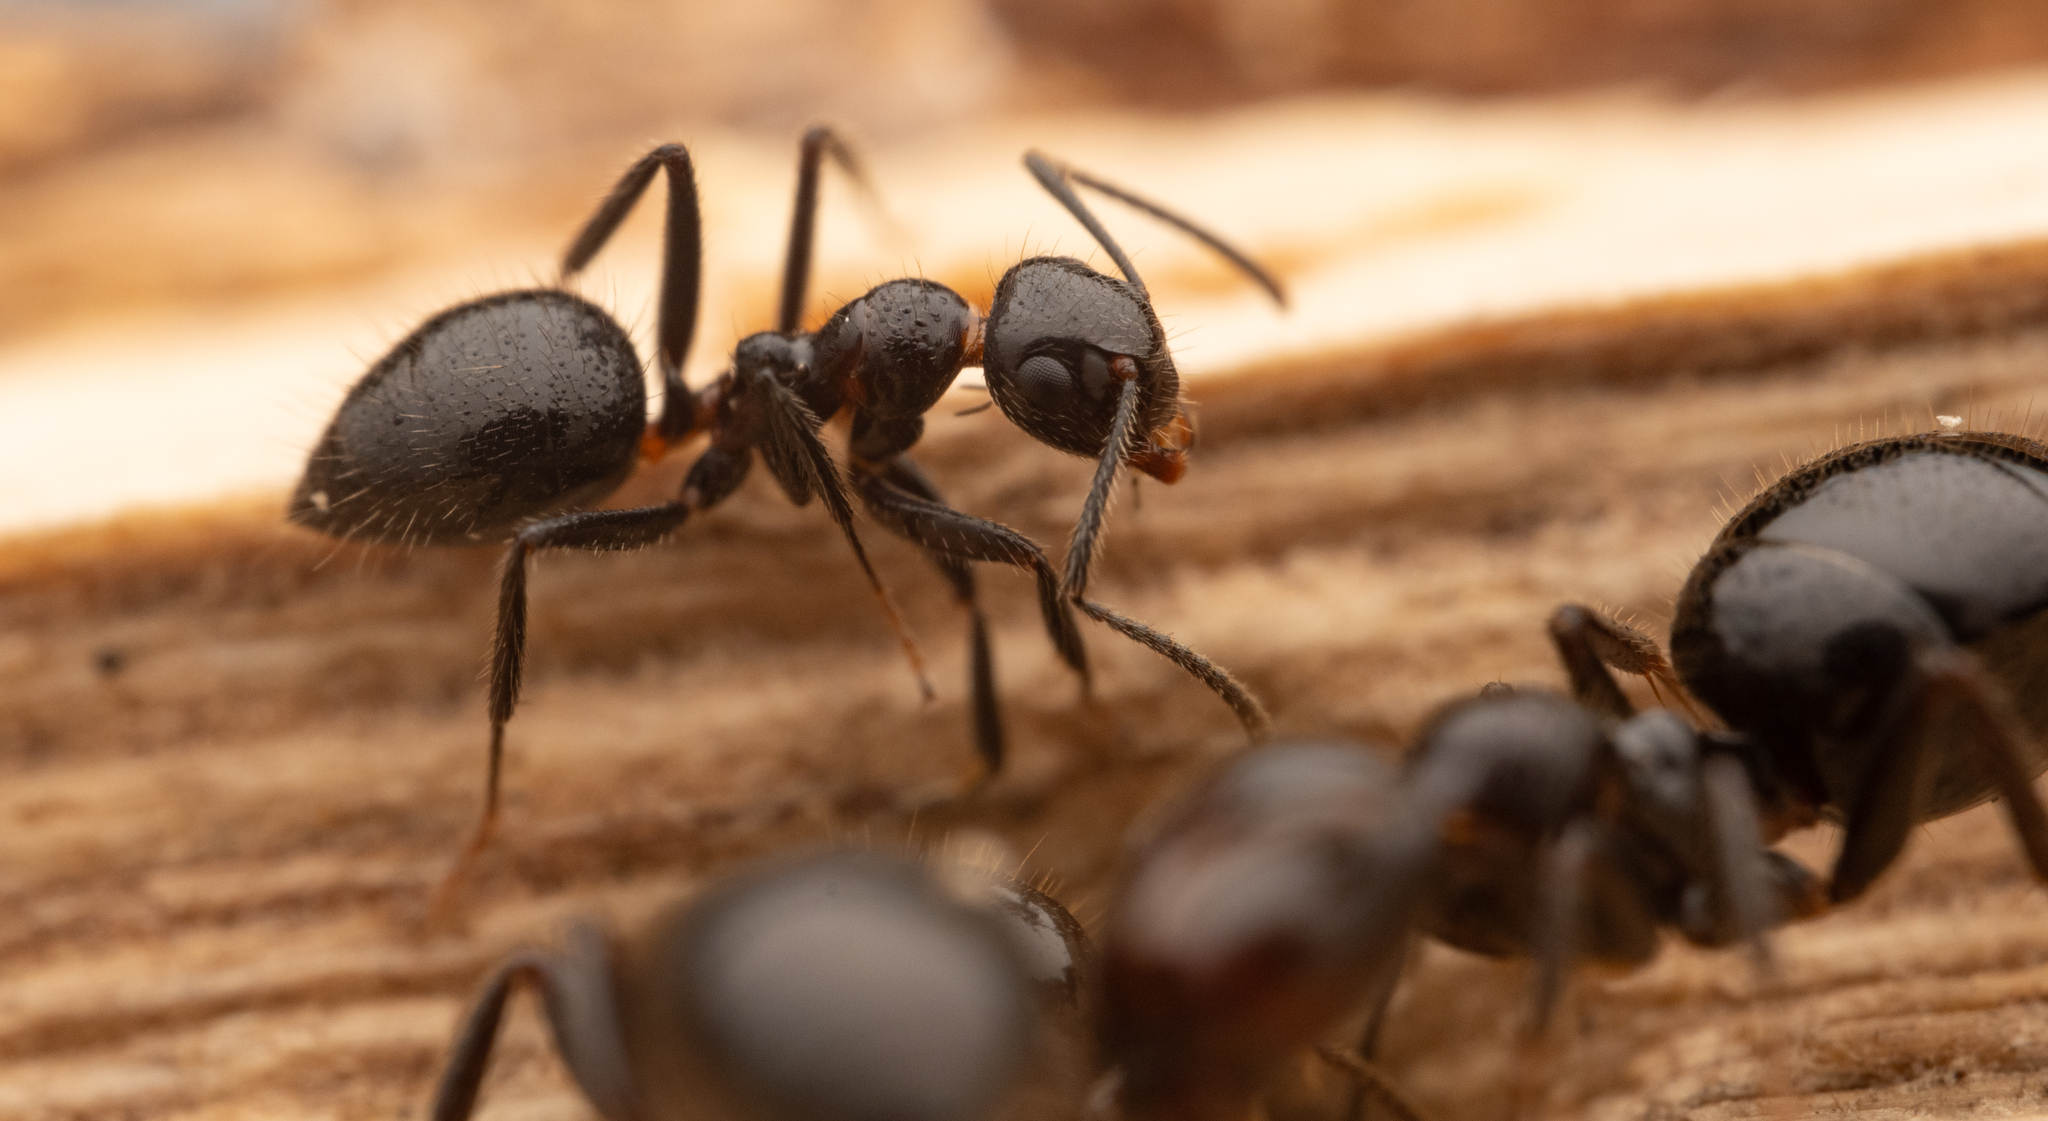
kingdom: Animalia
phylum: Arthropoda
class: Insecta
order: Hymenoptera
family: Formicidae
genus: Camponotus
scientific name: Camponotus vitreus
